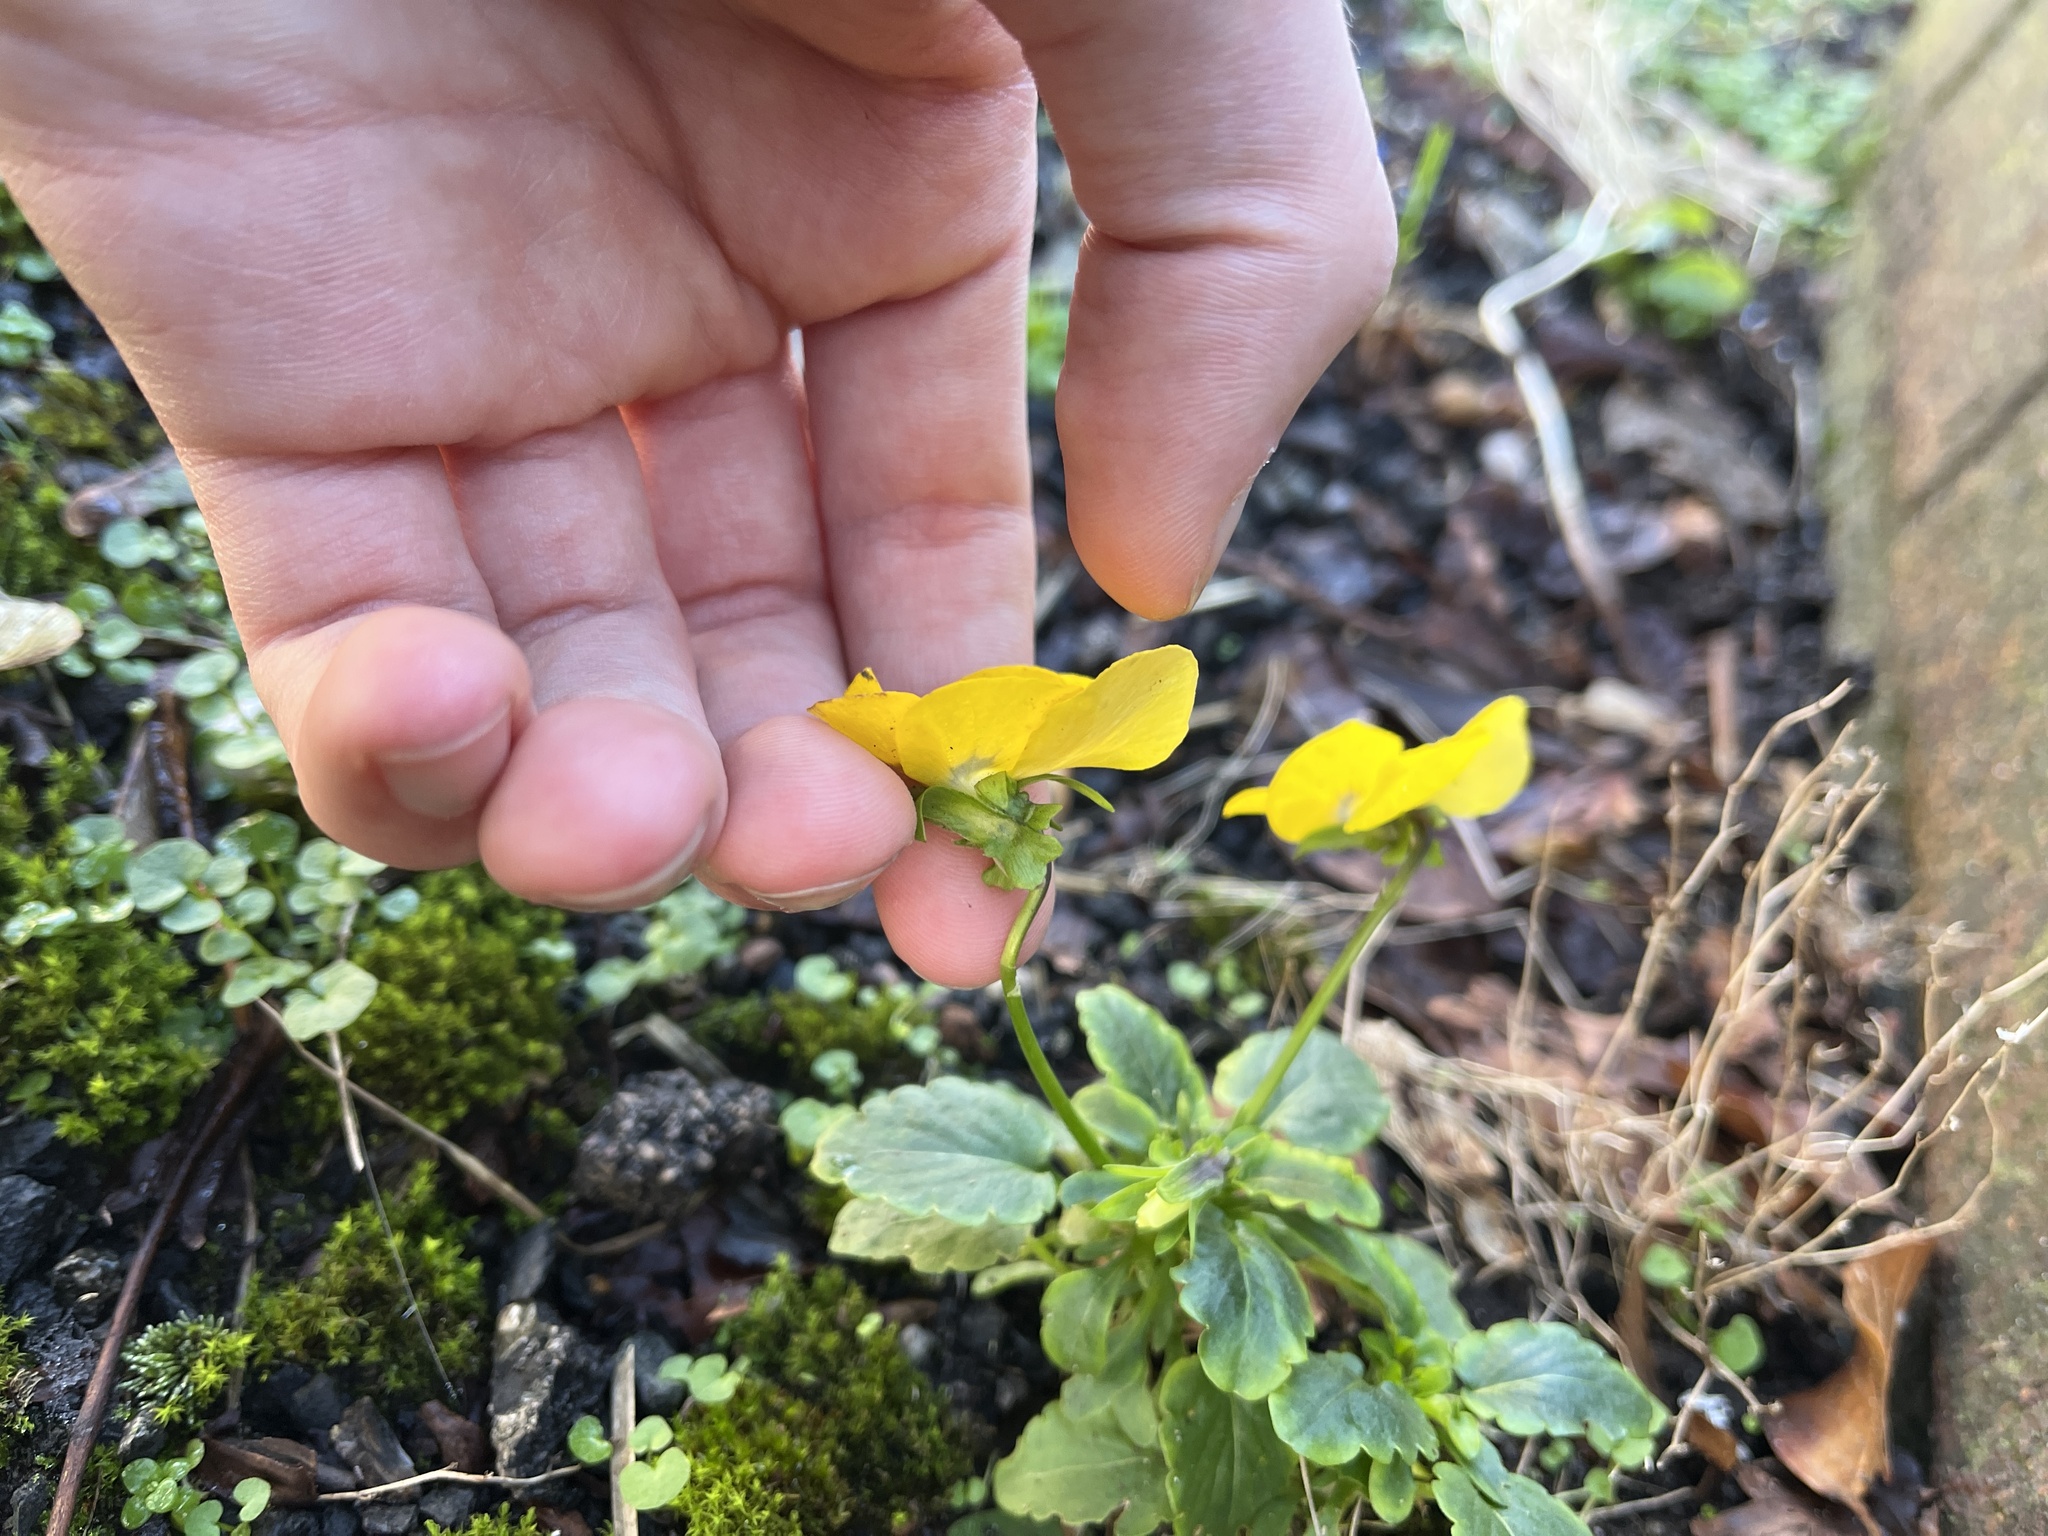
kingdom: Plantae
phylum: Tracheophyta
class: Magnoliopsida
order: Malpighiales
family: Violaceae
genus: Viola
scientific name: Viola williamsii
